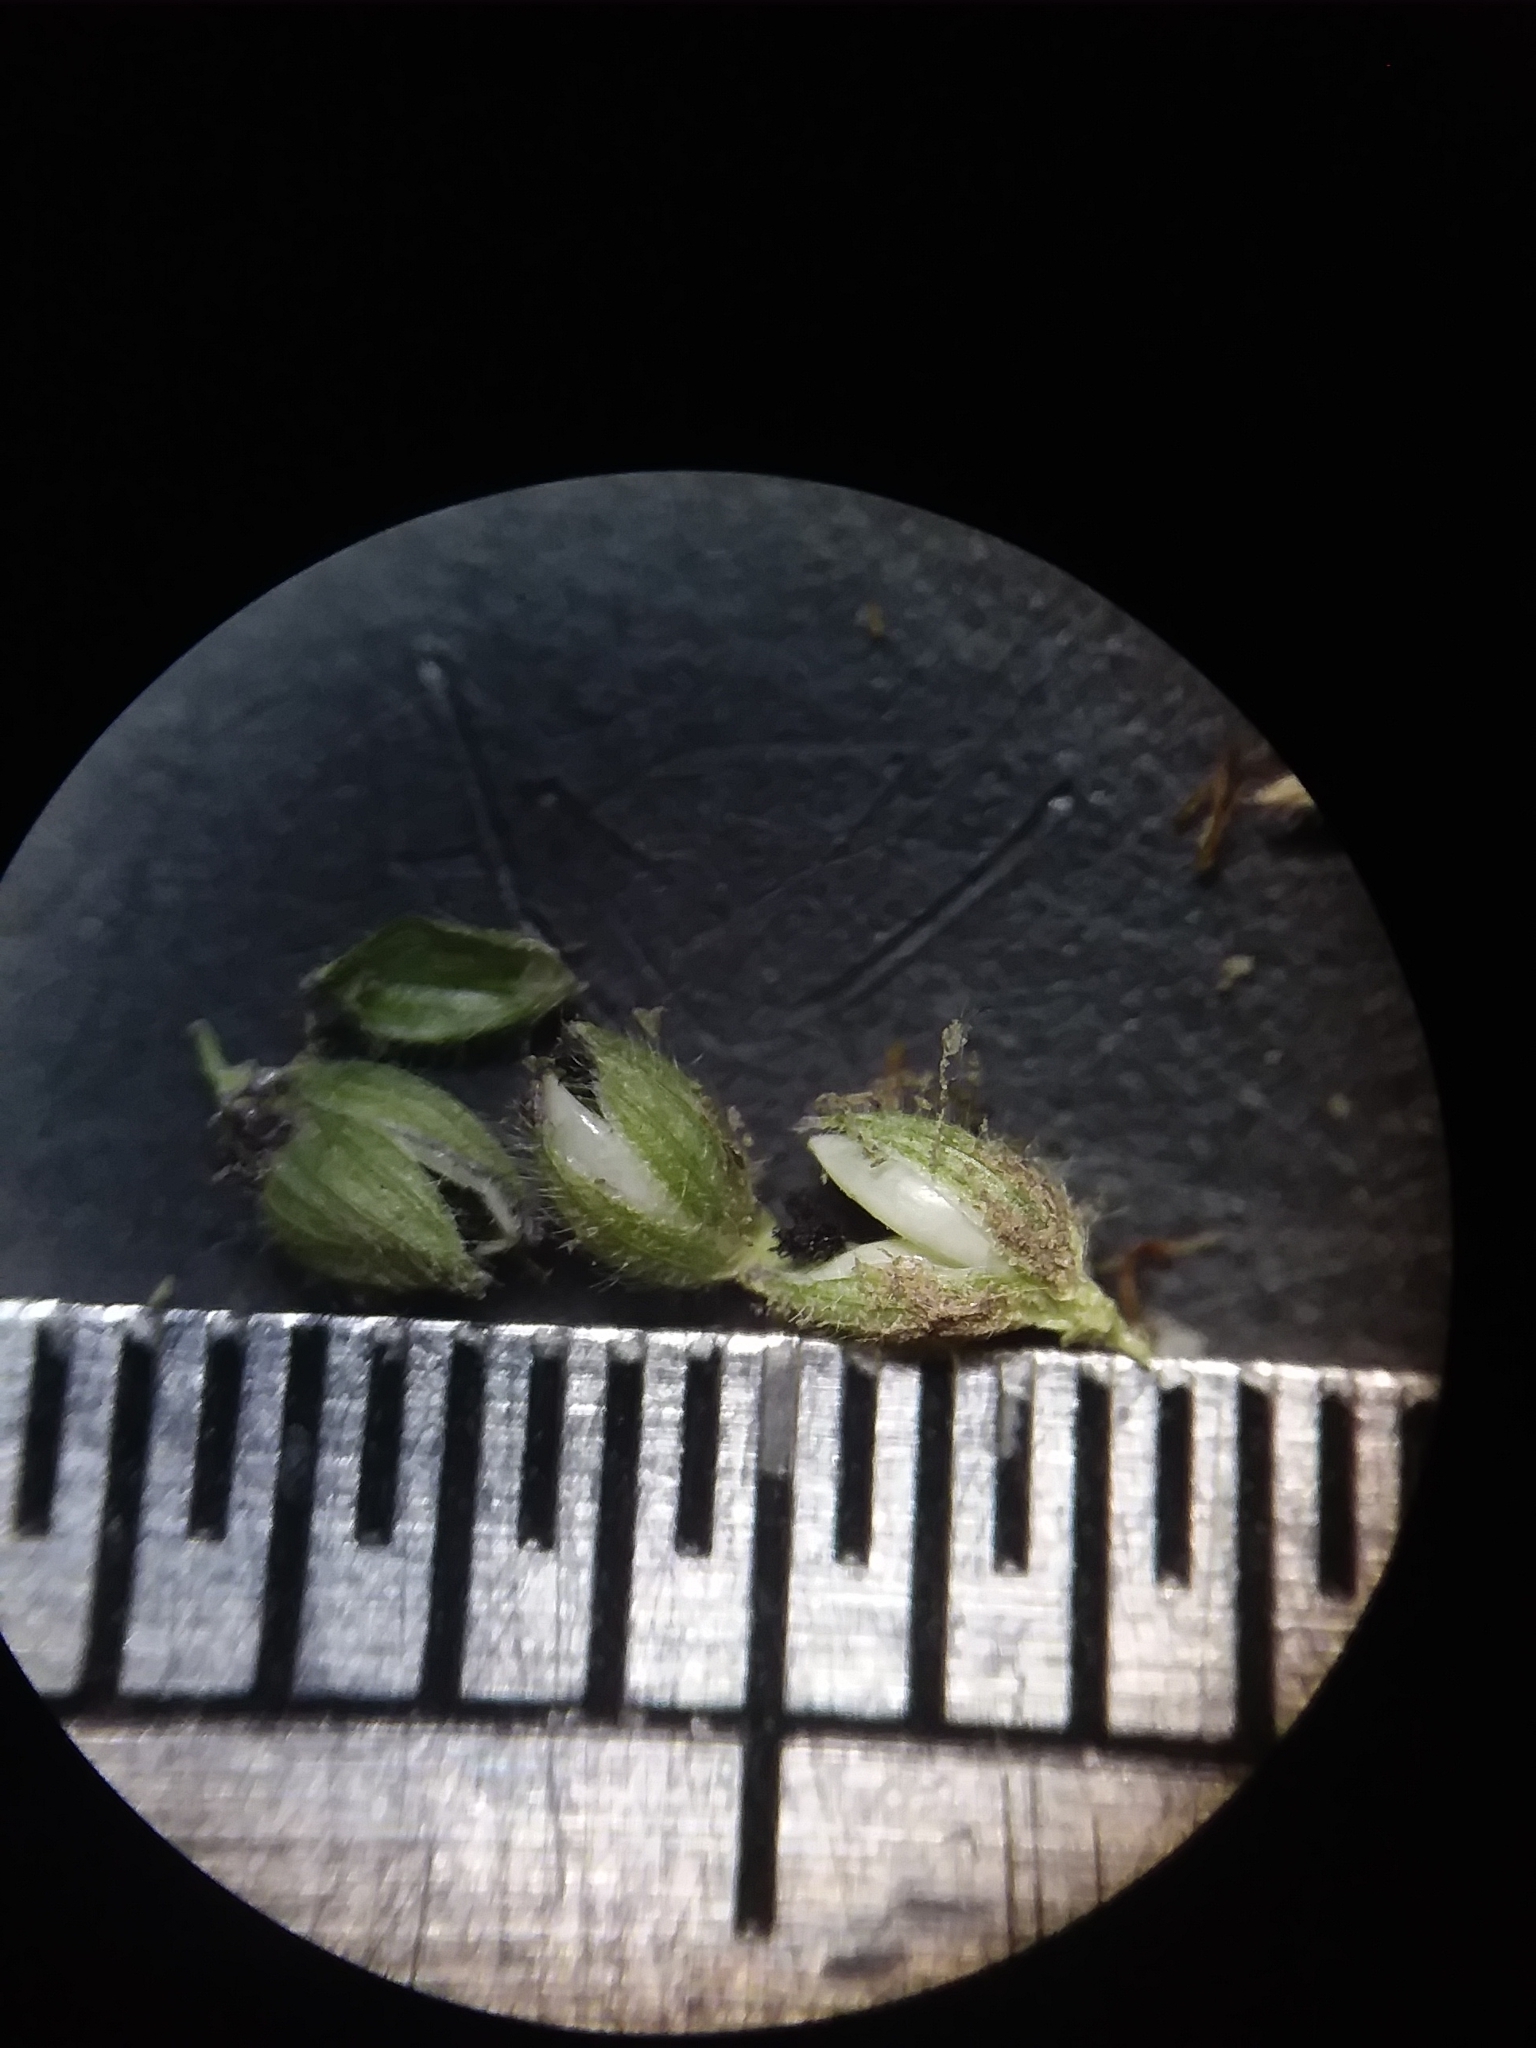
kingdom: Plantae
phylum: Tracheophyta
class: Liliopsida
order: Poales
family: Poaceae
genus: Dichanthelium
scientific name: Dichanthelium scoparium
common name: Velvety panic grass
